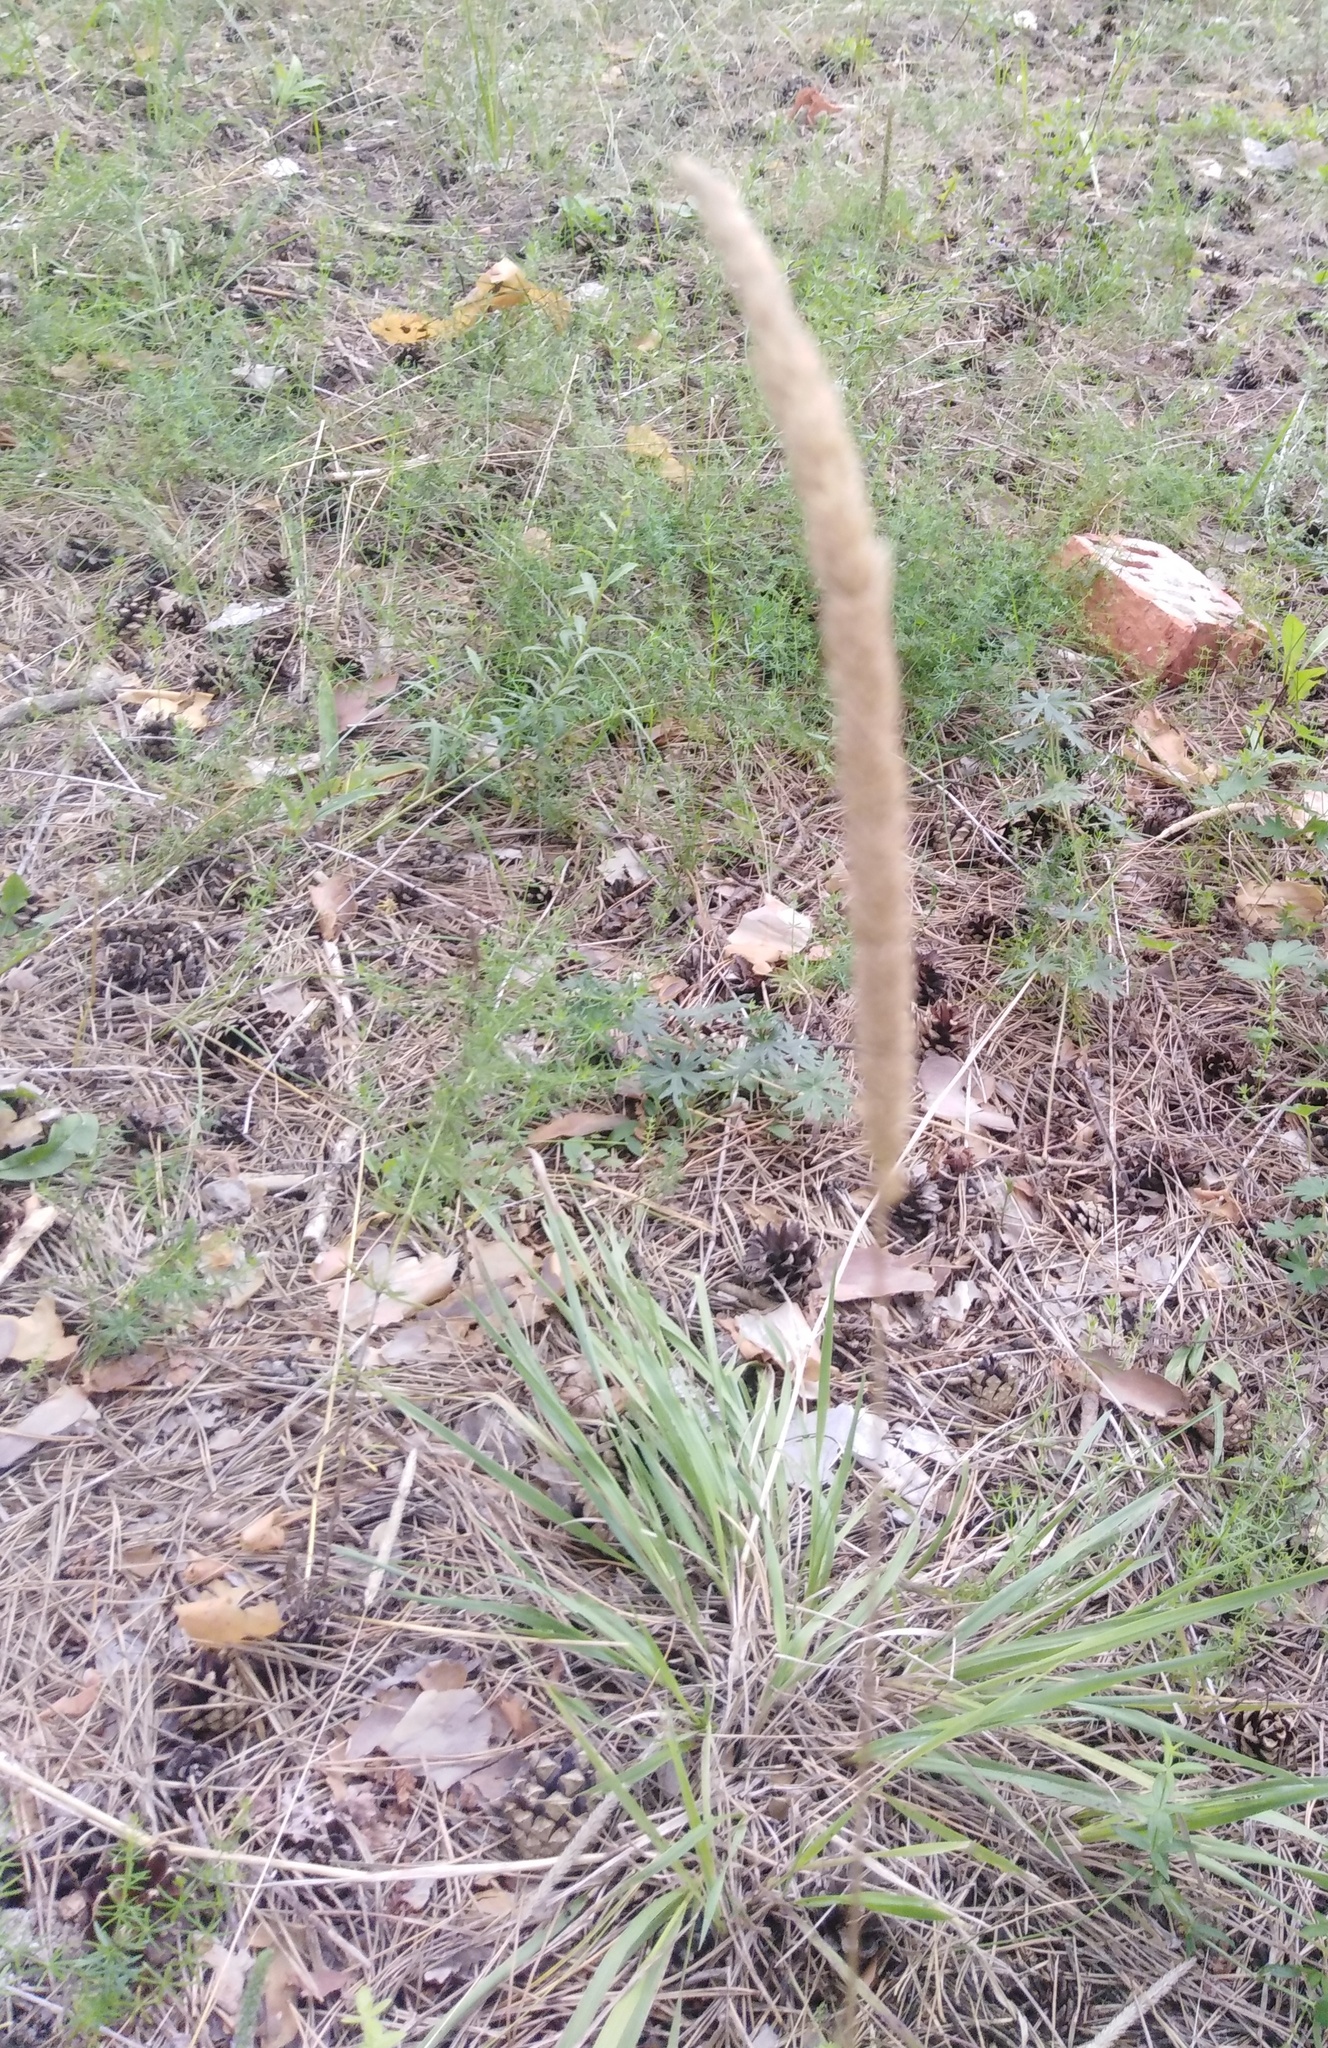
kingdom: Plantae
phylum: Tracheophyta
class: Liliopsida
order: Poales
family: Poaceae
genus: Phleum
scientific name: Phleum phleoides
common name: Purple-stem cat's-tail
